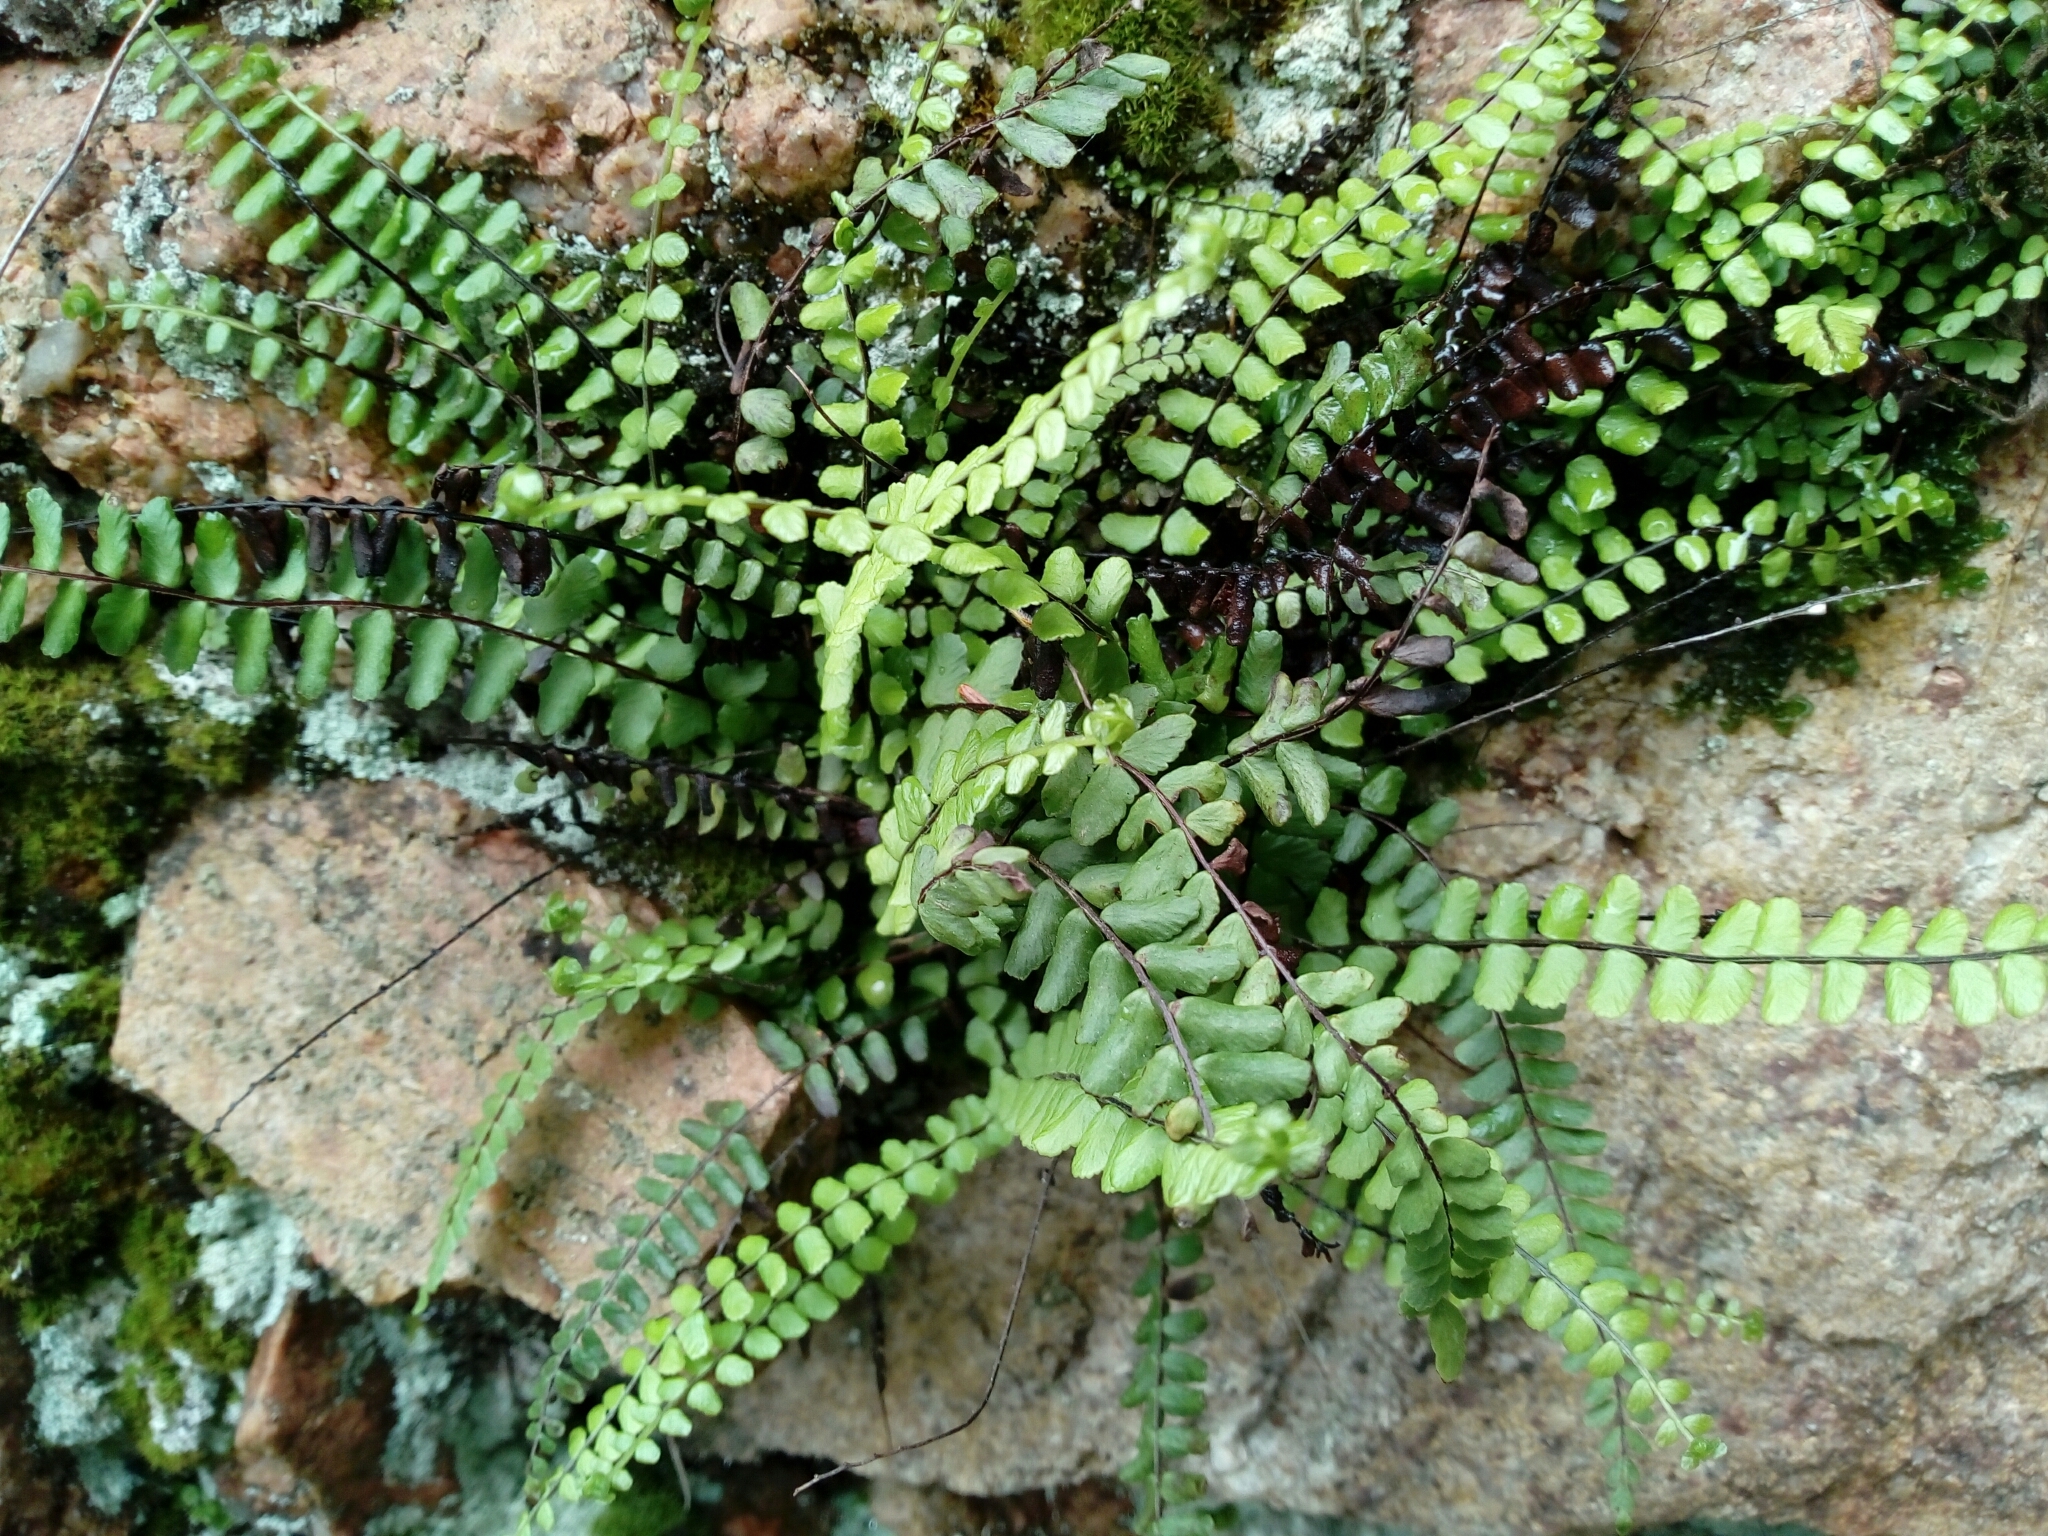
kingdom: Plantae
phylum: Tracheophyta
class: Polypodiopsida
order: Polypodiales
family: Aspleniaceae
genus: Asplenium
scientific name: Asplenium trichomanes
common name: Maidenhair spleenwort
